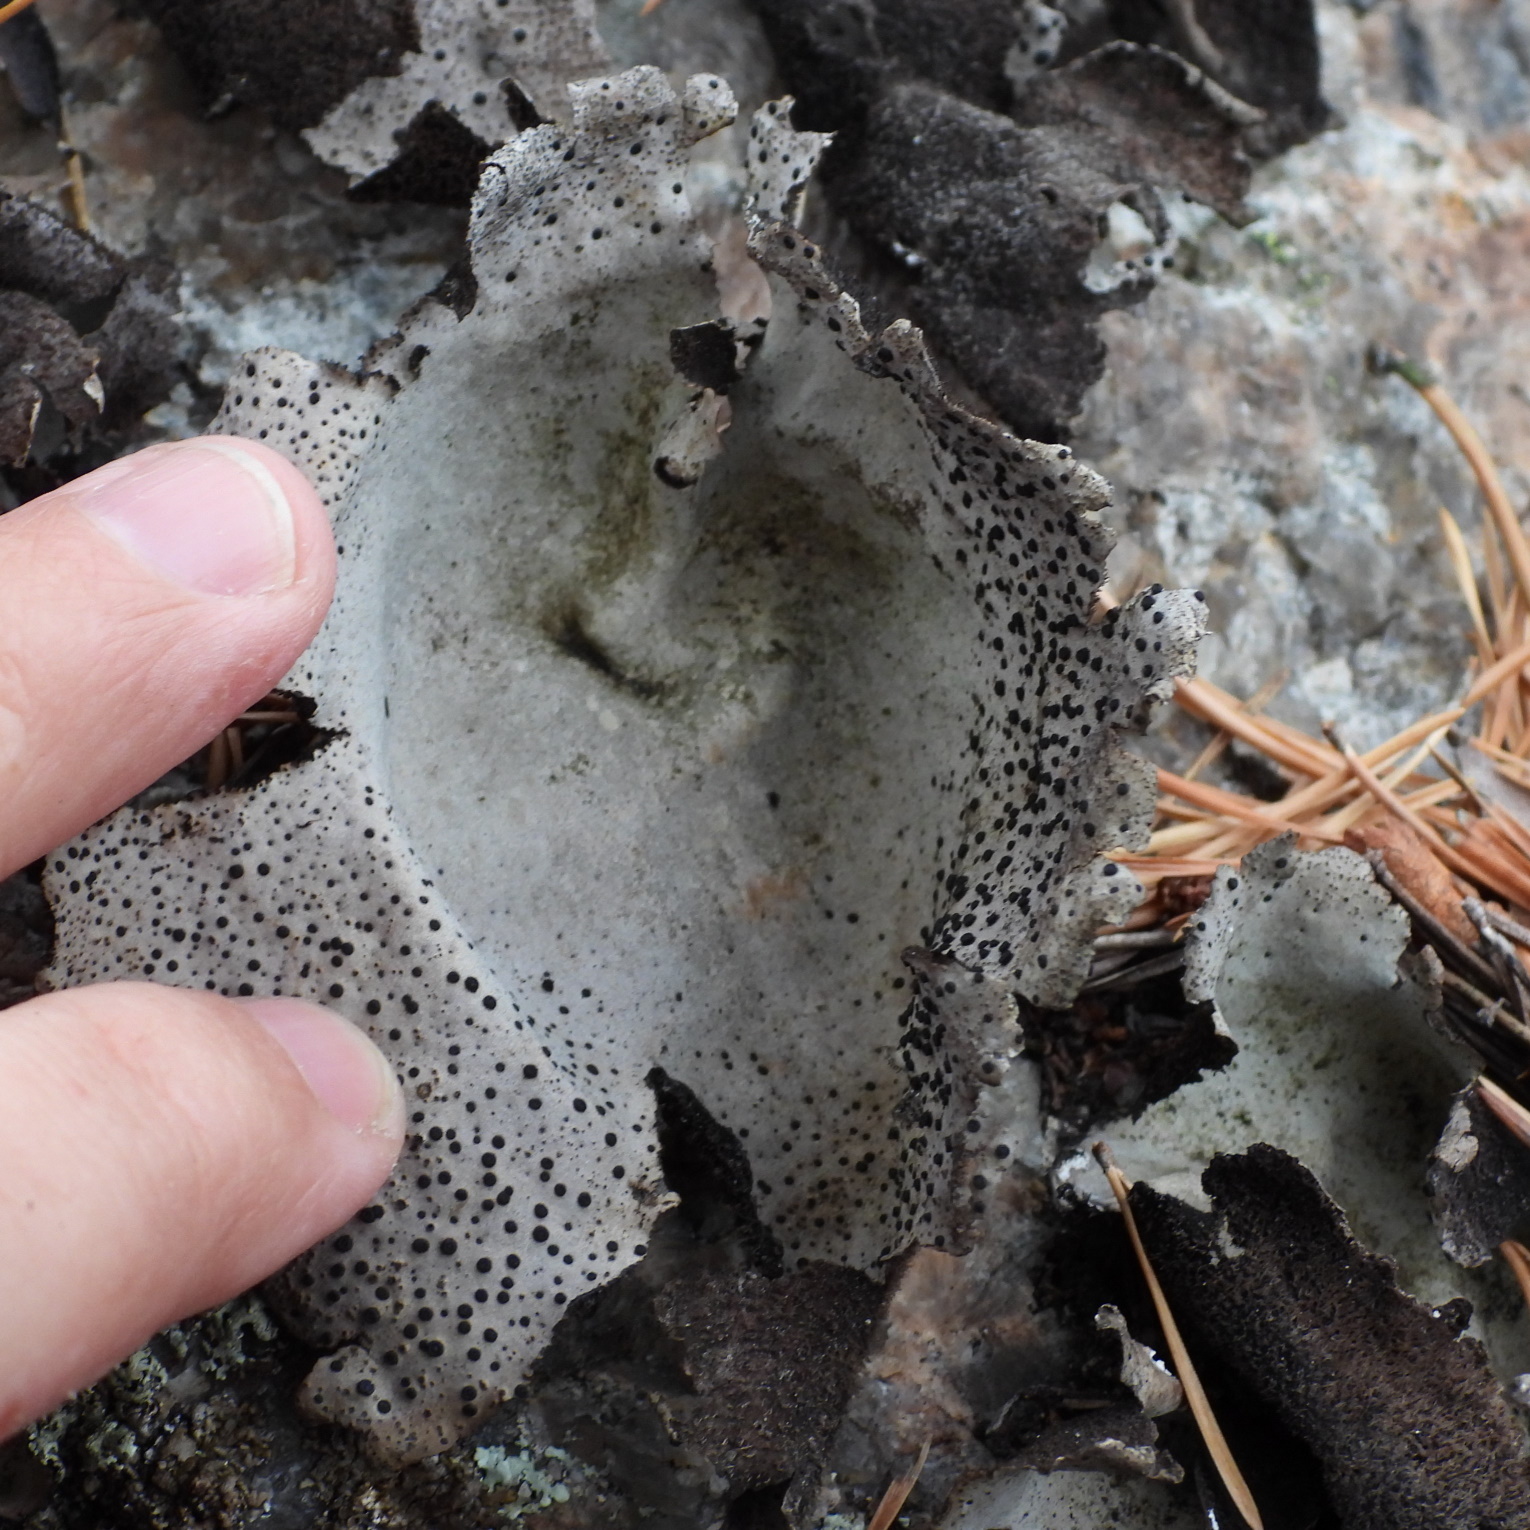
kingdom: Fungi
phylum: Ascomycota
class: Lecanoromycetes
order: Umbilicariales
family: Umbilicariaceae
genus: Umbilicaria
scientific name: Umbilicaria spodochroa
